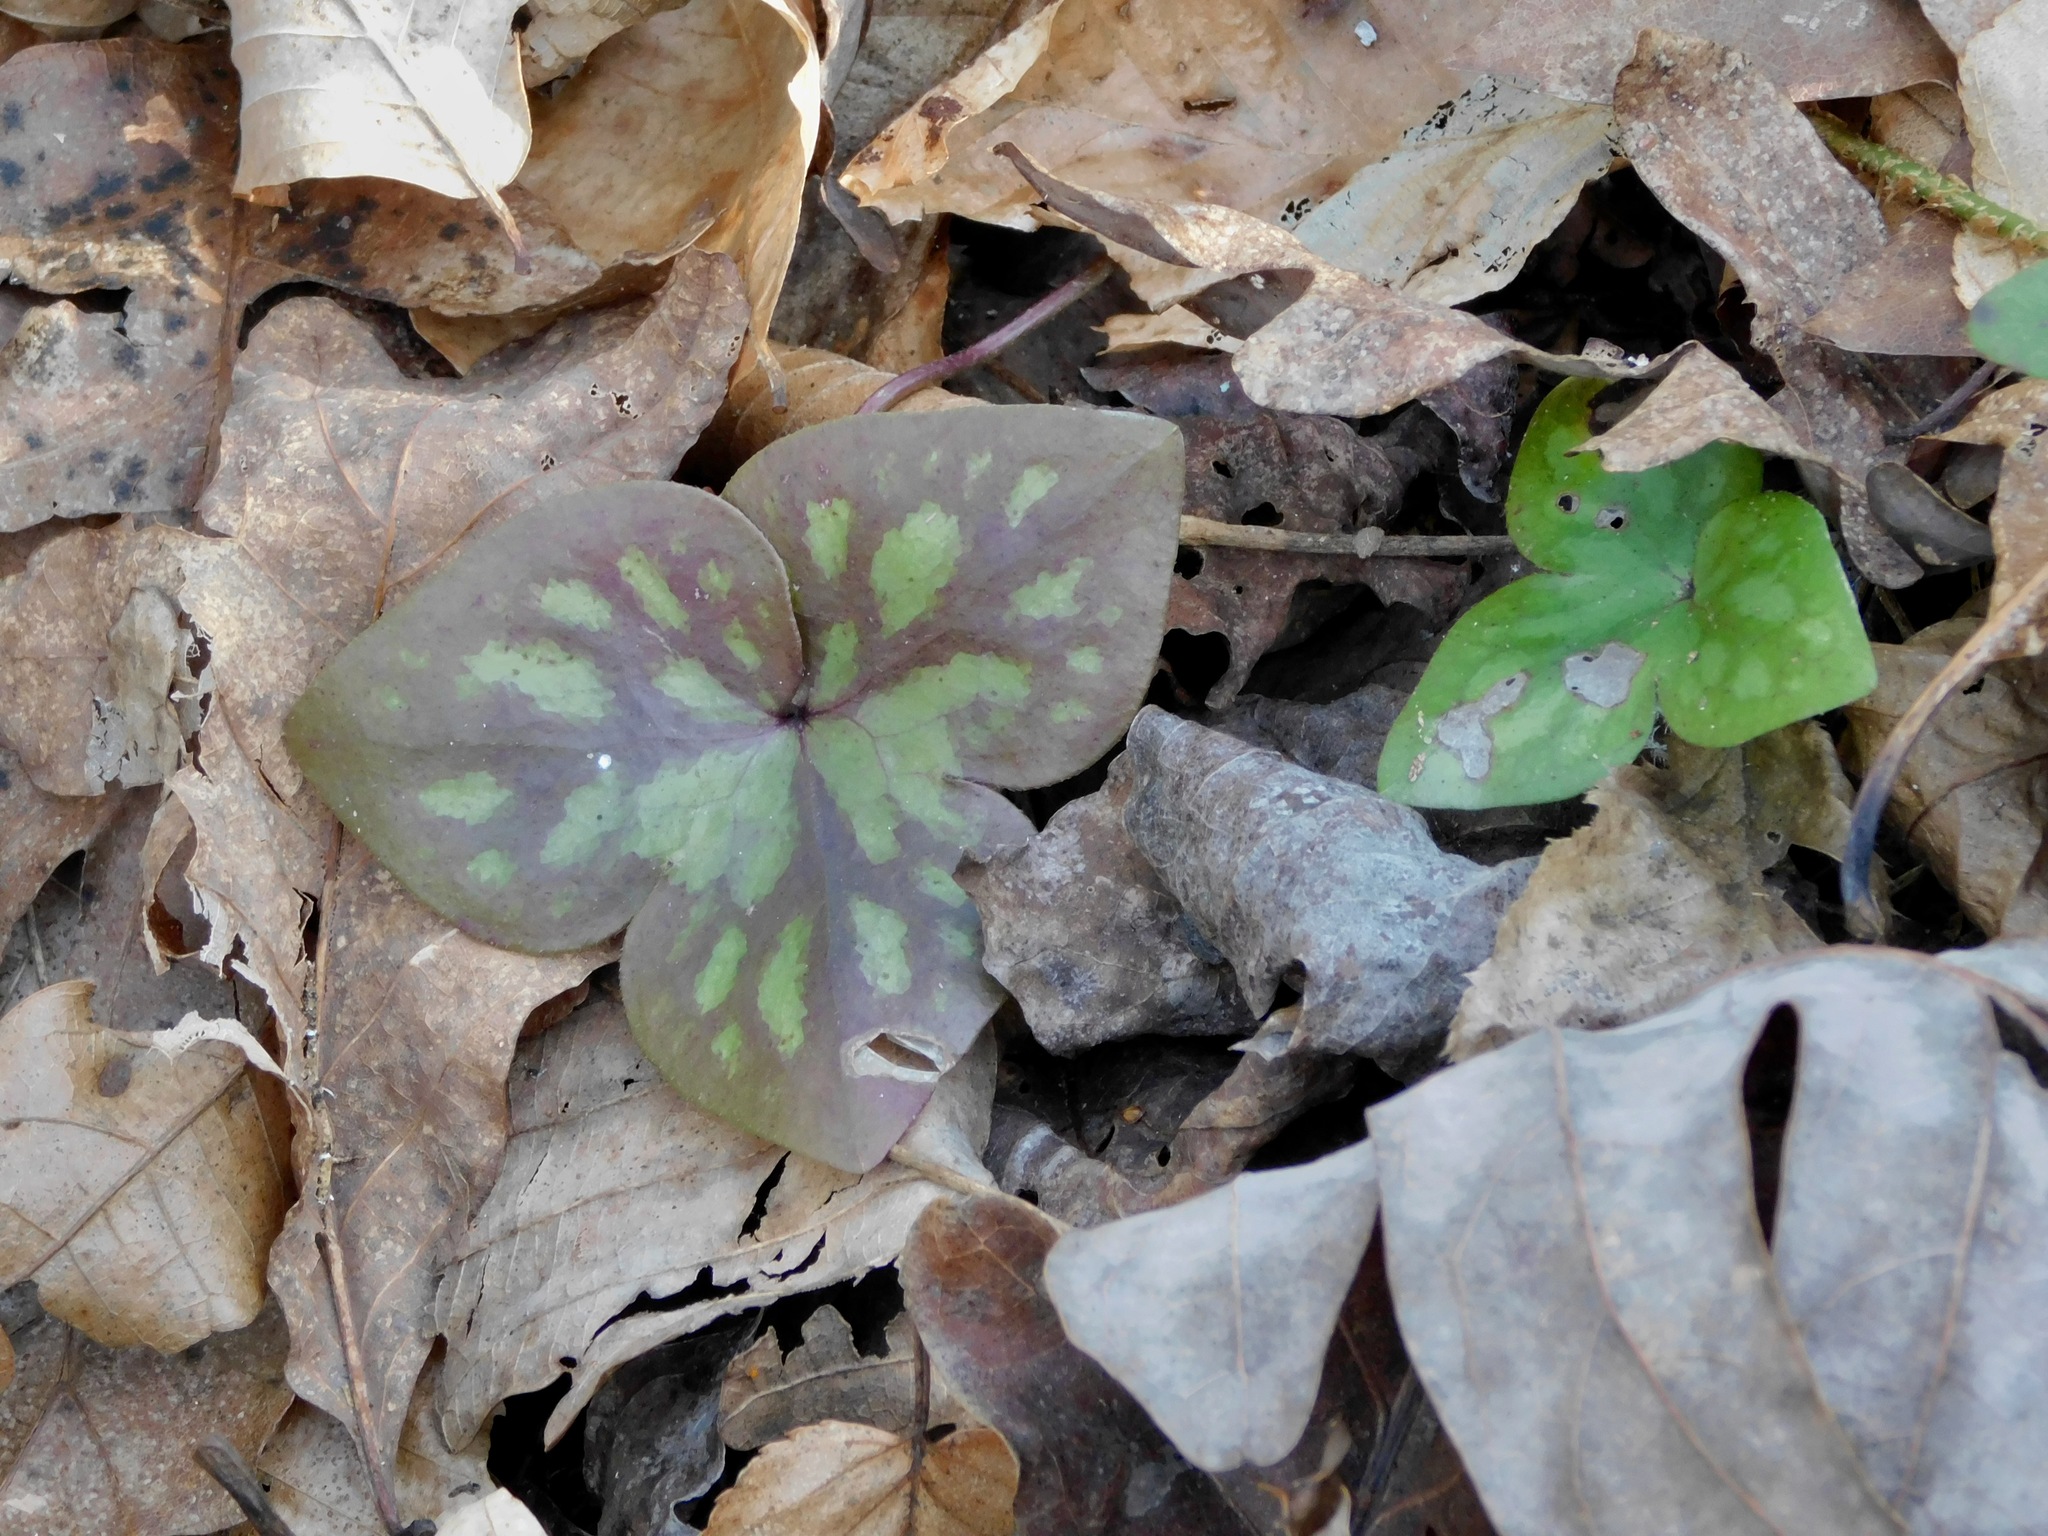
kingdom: Plantae
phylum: Tracheophyta
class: Magnoliopsida
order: Ranunculales
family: Ranunculaceae
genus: Hepatica
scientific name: Hepatica acutiloba
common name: Sharp-lobed hepatica
